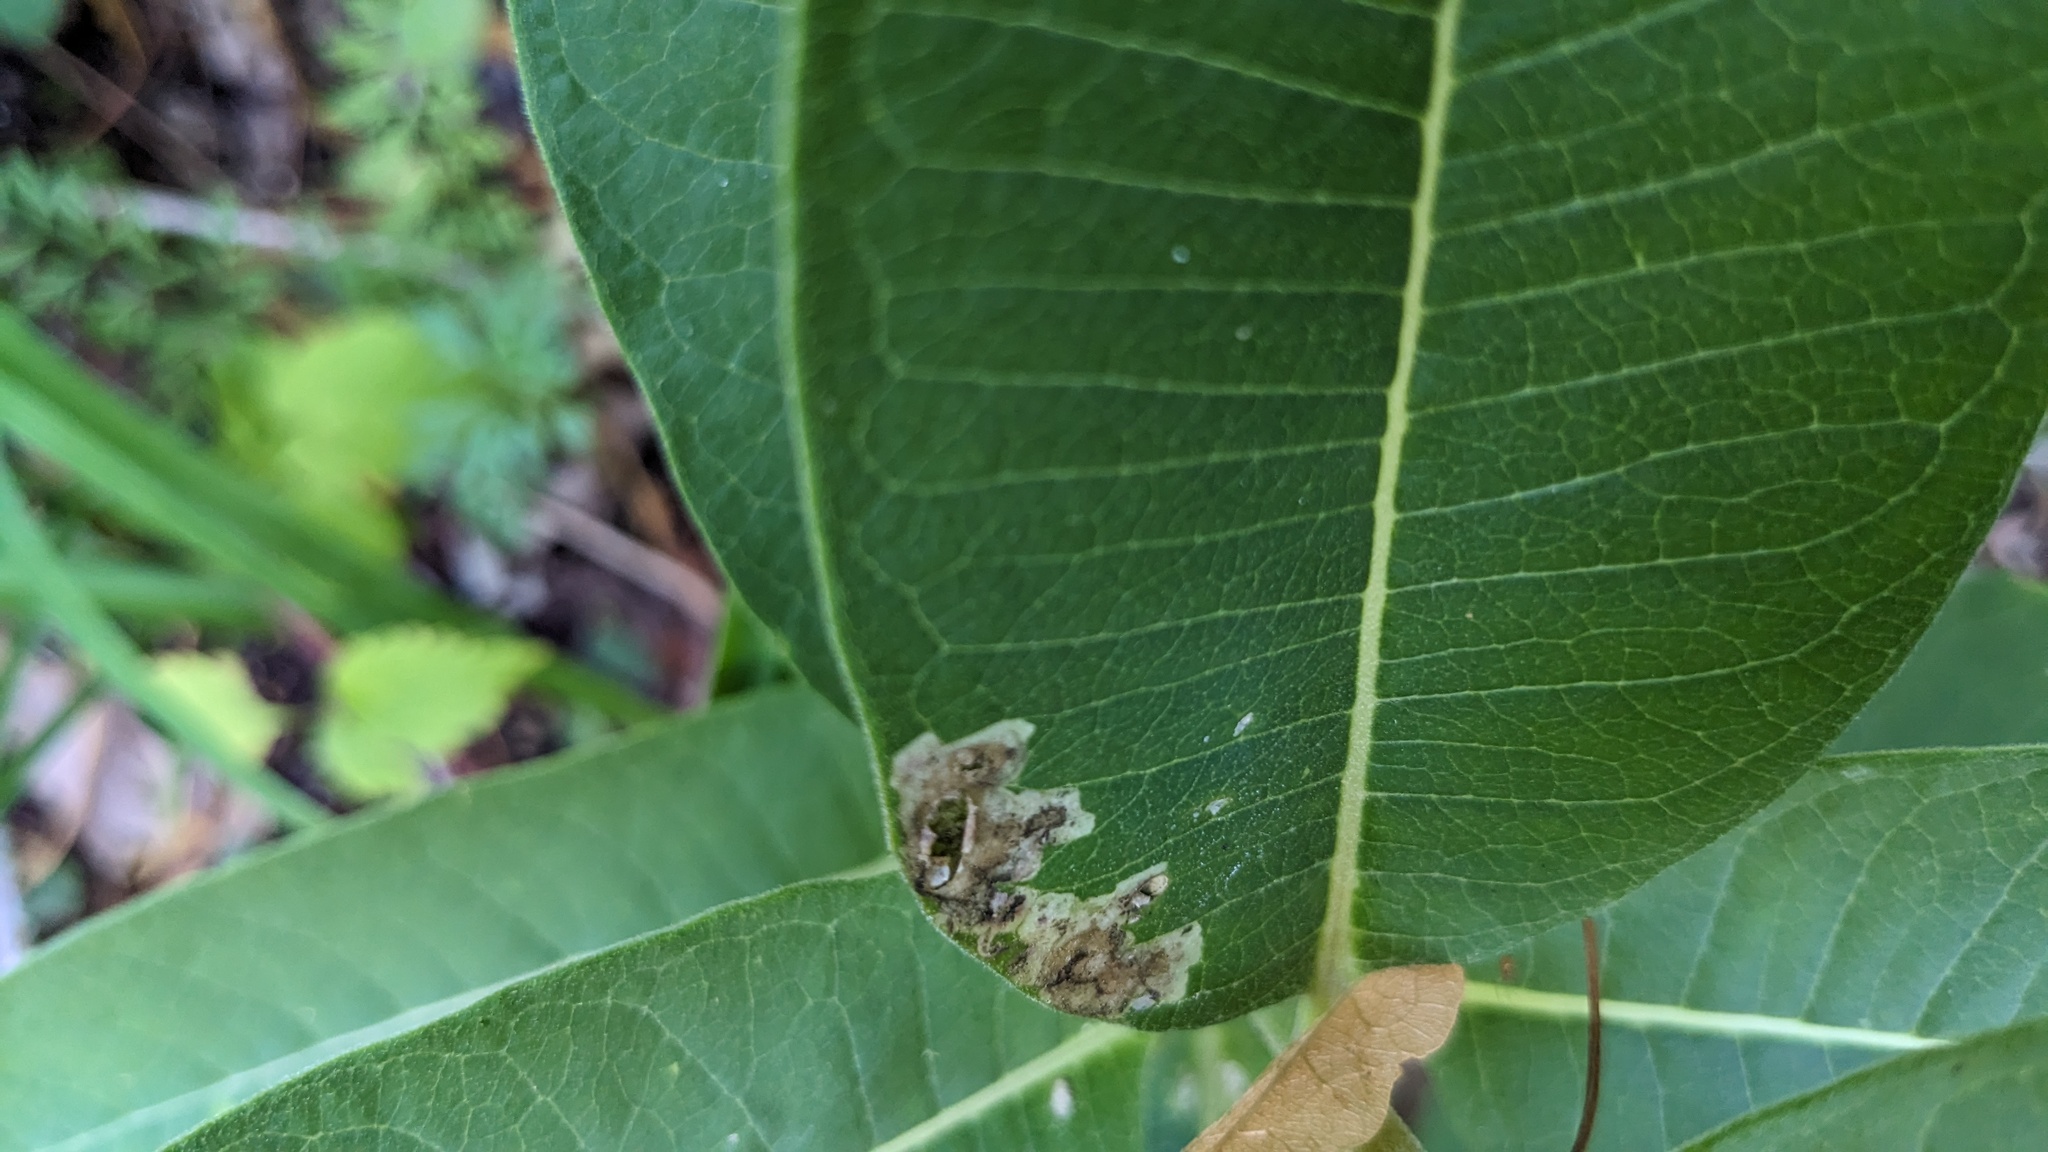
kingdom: Animalia
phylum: Arthropoda
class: Insecta
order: Diptera
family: Agromyzidae
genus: Liriomyza
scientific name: Liriomyza asclepiadis
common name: Milkweed leaf-miner fly
